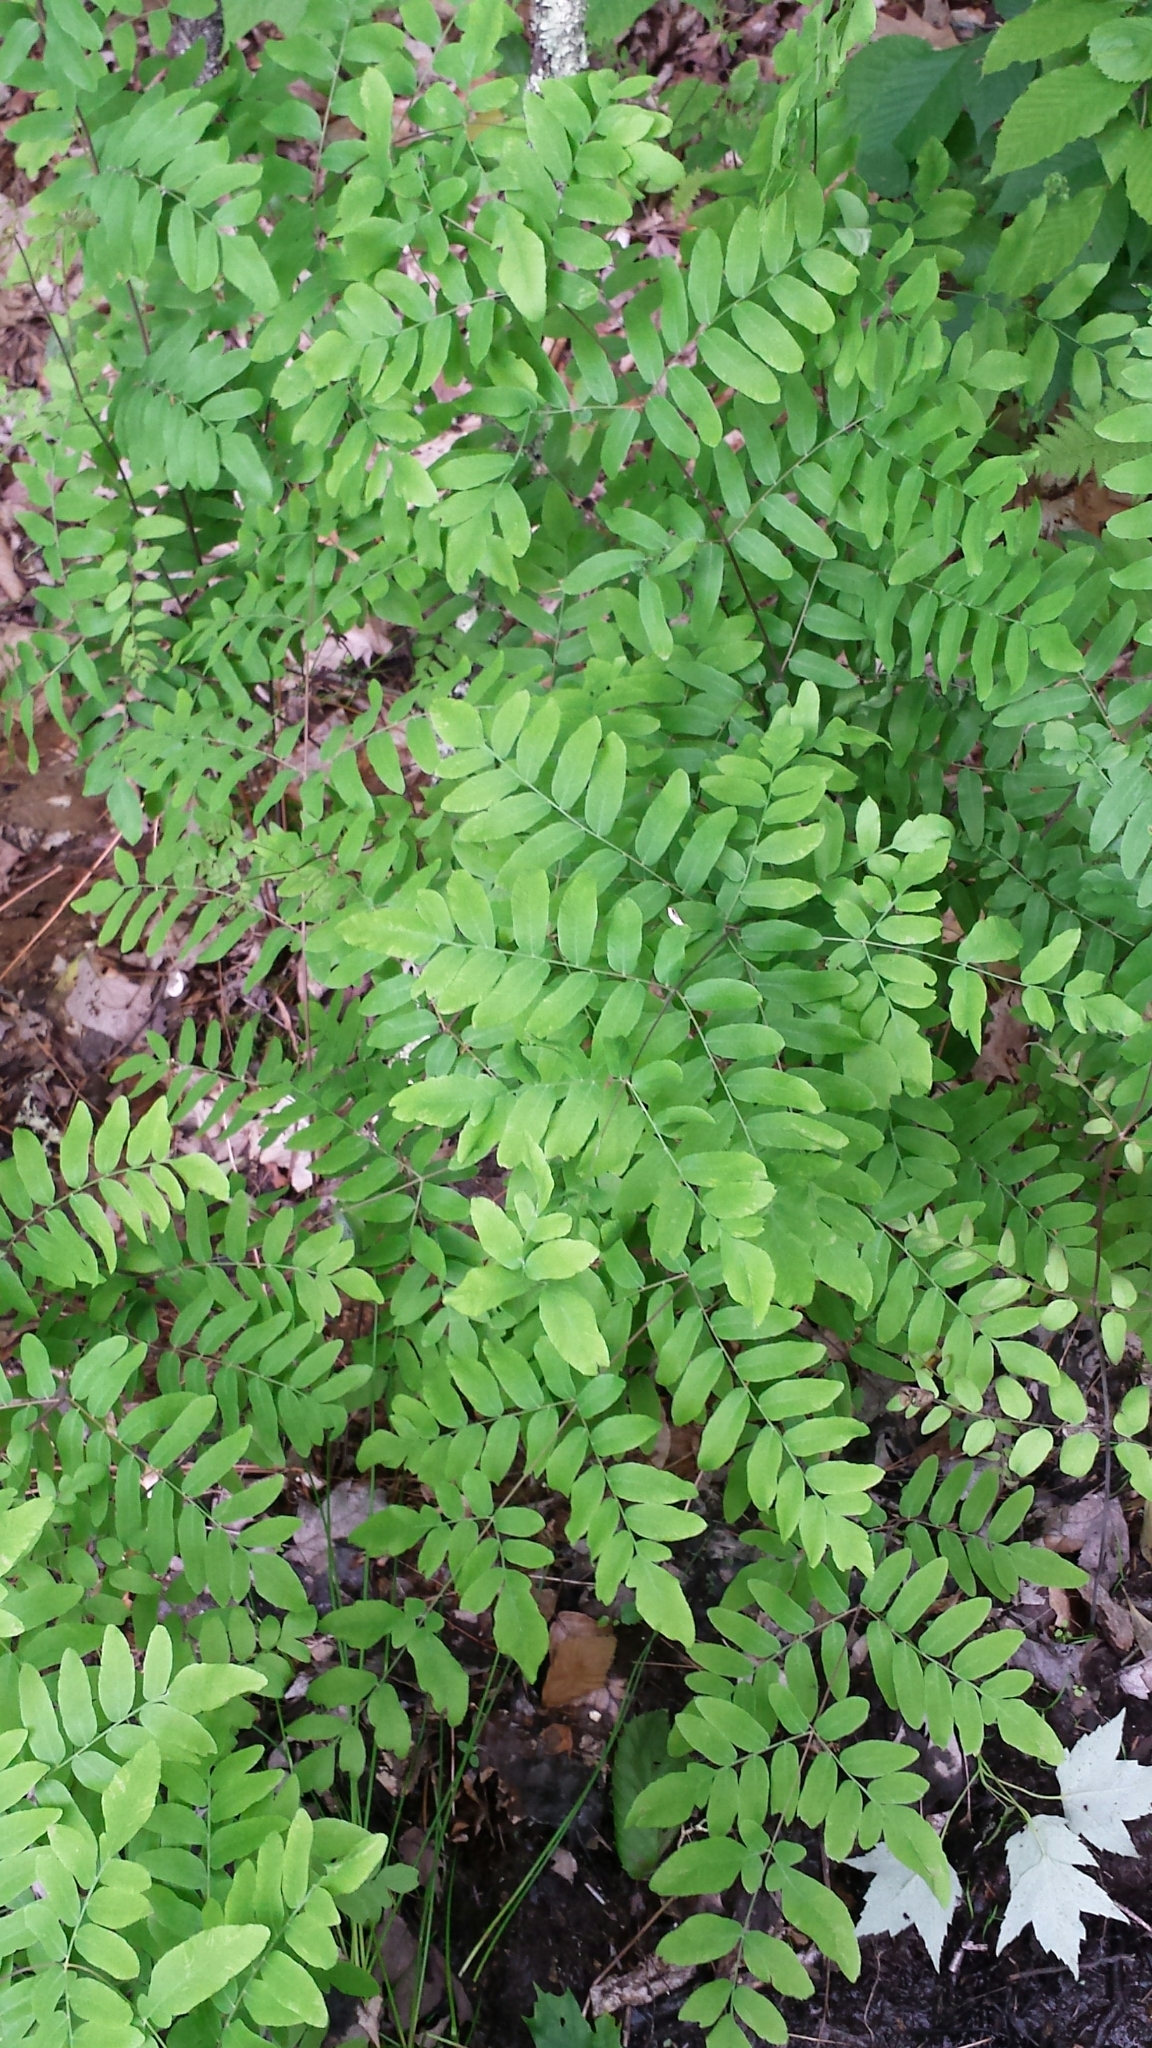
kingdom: Plantae
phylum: Tracheophyta
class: Polypodiopsida
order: Osmundales
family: Osmundaceae
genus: Osmunda
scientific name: Osmunda spectabilis
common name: American royal fern
